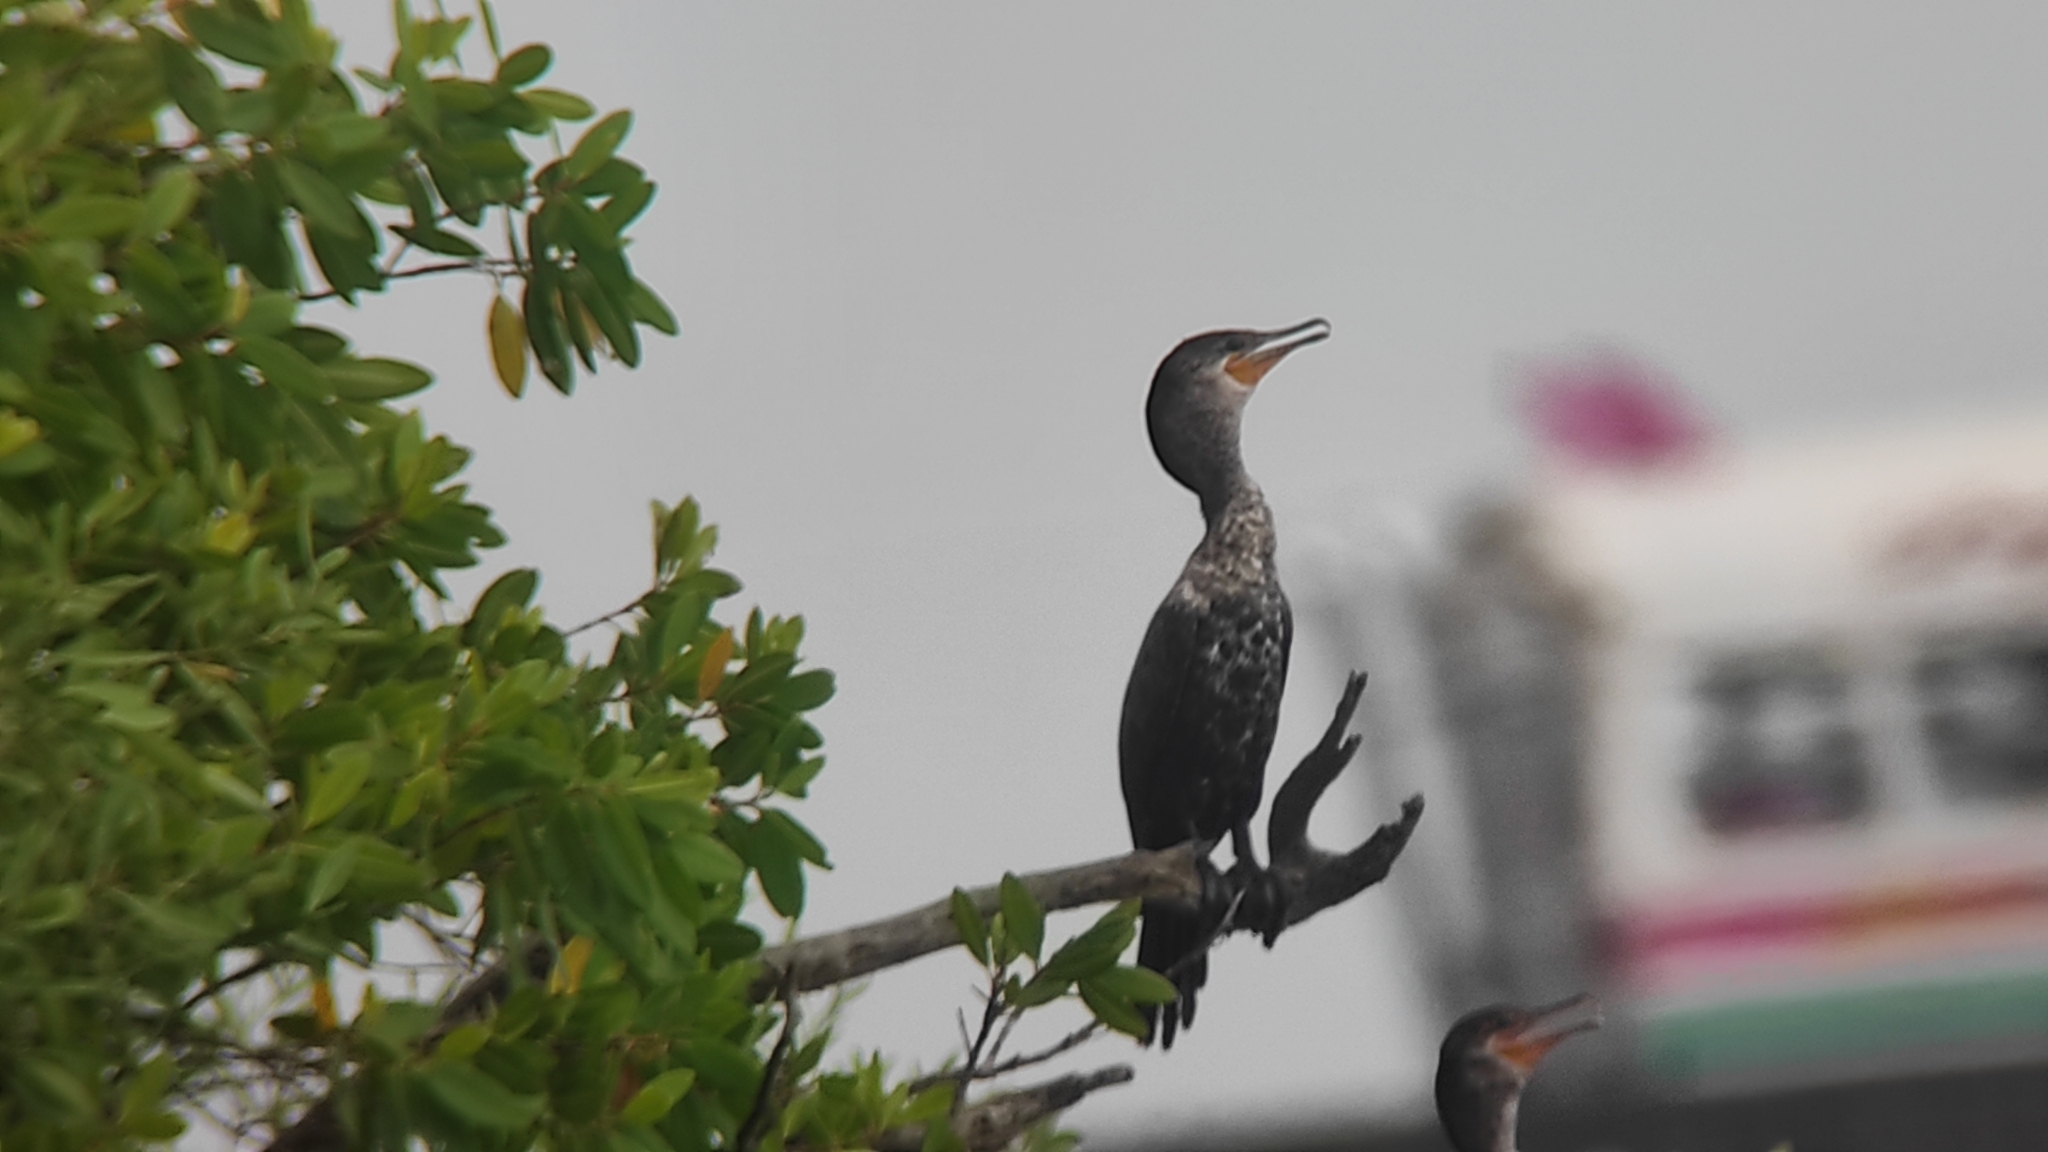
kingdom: Animalia
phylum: Chordata
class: Aves
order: Suliformes
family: Phalacrocoracidae
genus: Phalacrocorax
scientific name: Phalacrocorax brasilianus
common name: Neotropic cormorant
